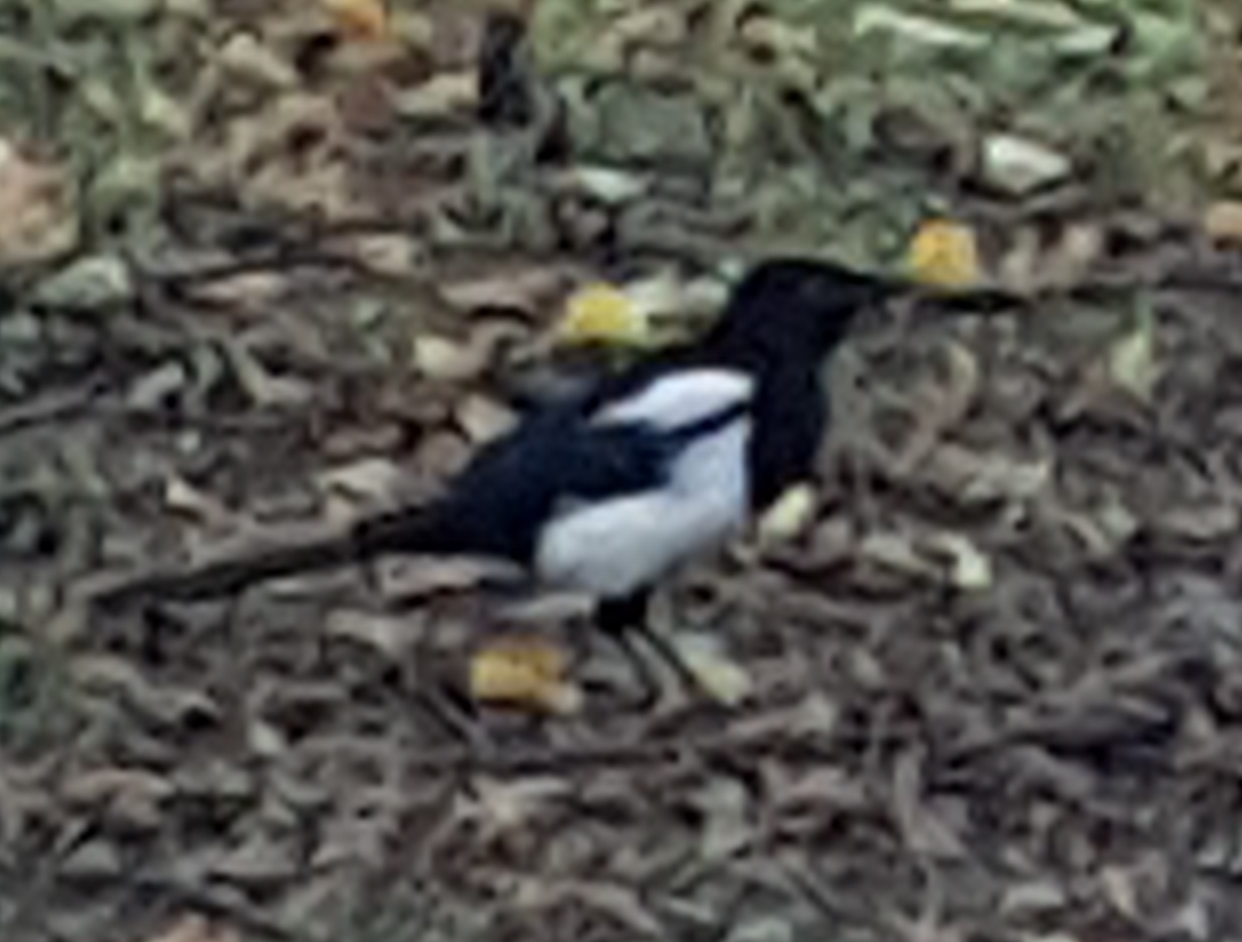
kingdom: Animalia
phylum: Chordata
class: Aves
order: Passeriformes
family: Corvidae
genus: Pica
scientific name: Pica pica
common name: Eurasian magpie
